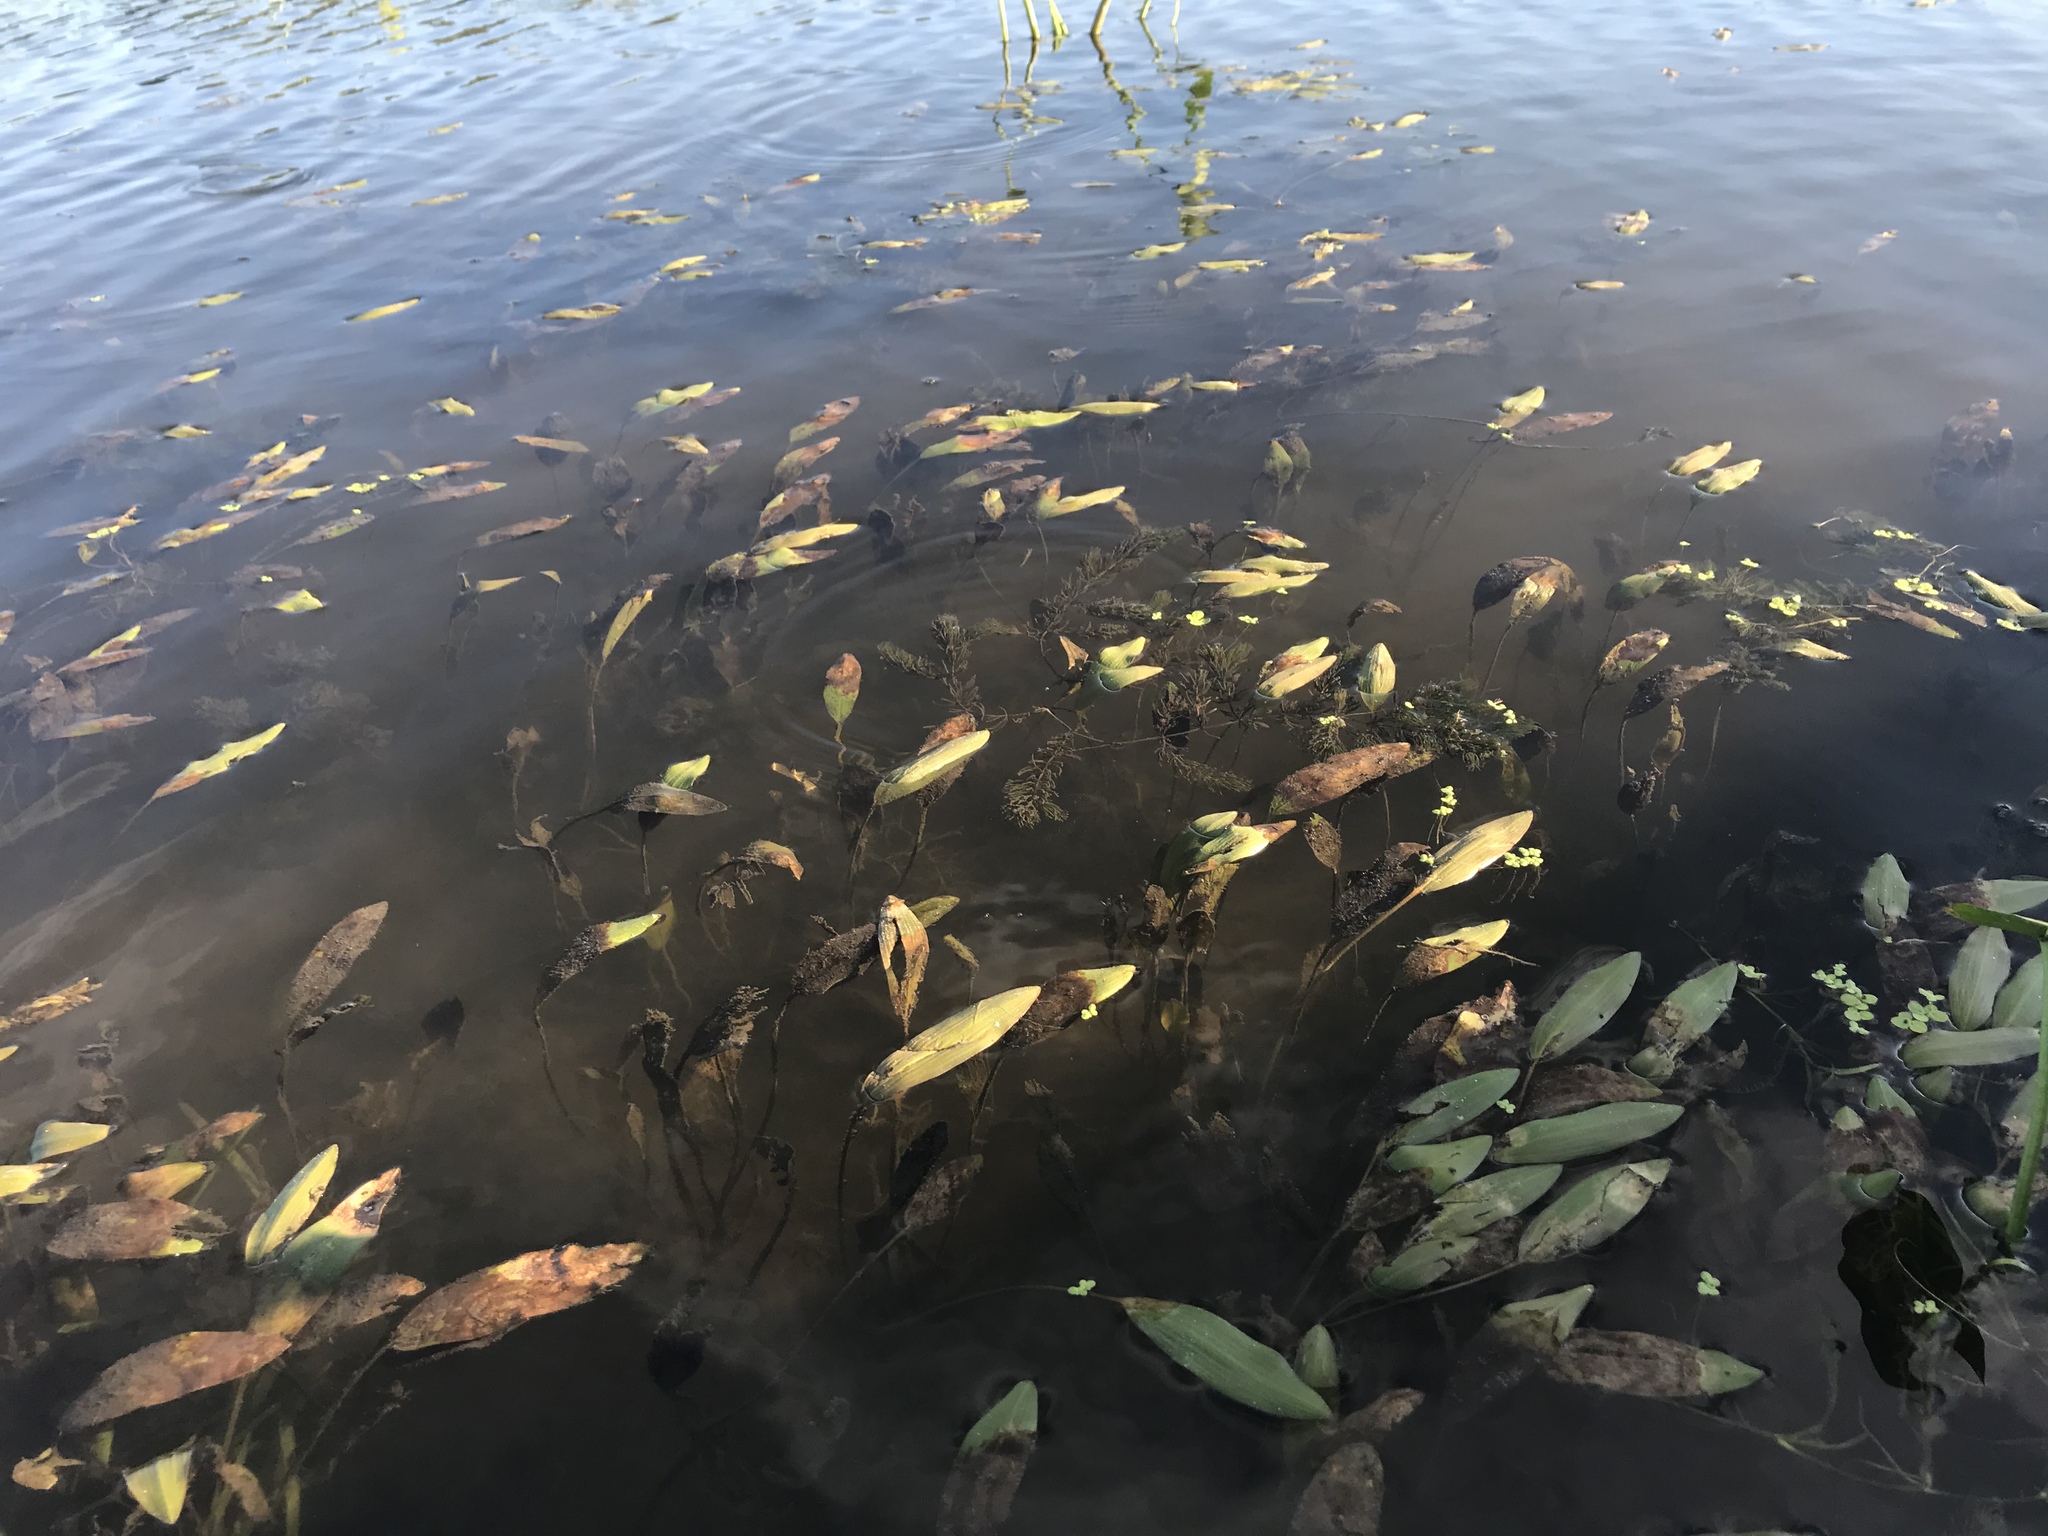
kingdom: Plantae
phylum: Tracheophyta
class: Liliopsida
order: Alismatales
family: Potamogetonaceae
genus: Potamogeton
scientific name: Potamogeton nodosus
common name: Loddon pondweed
